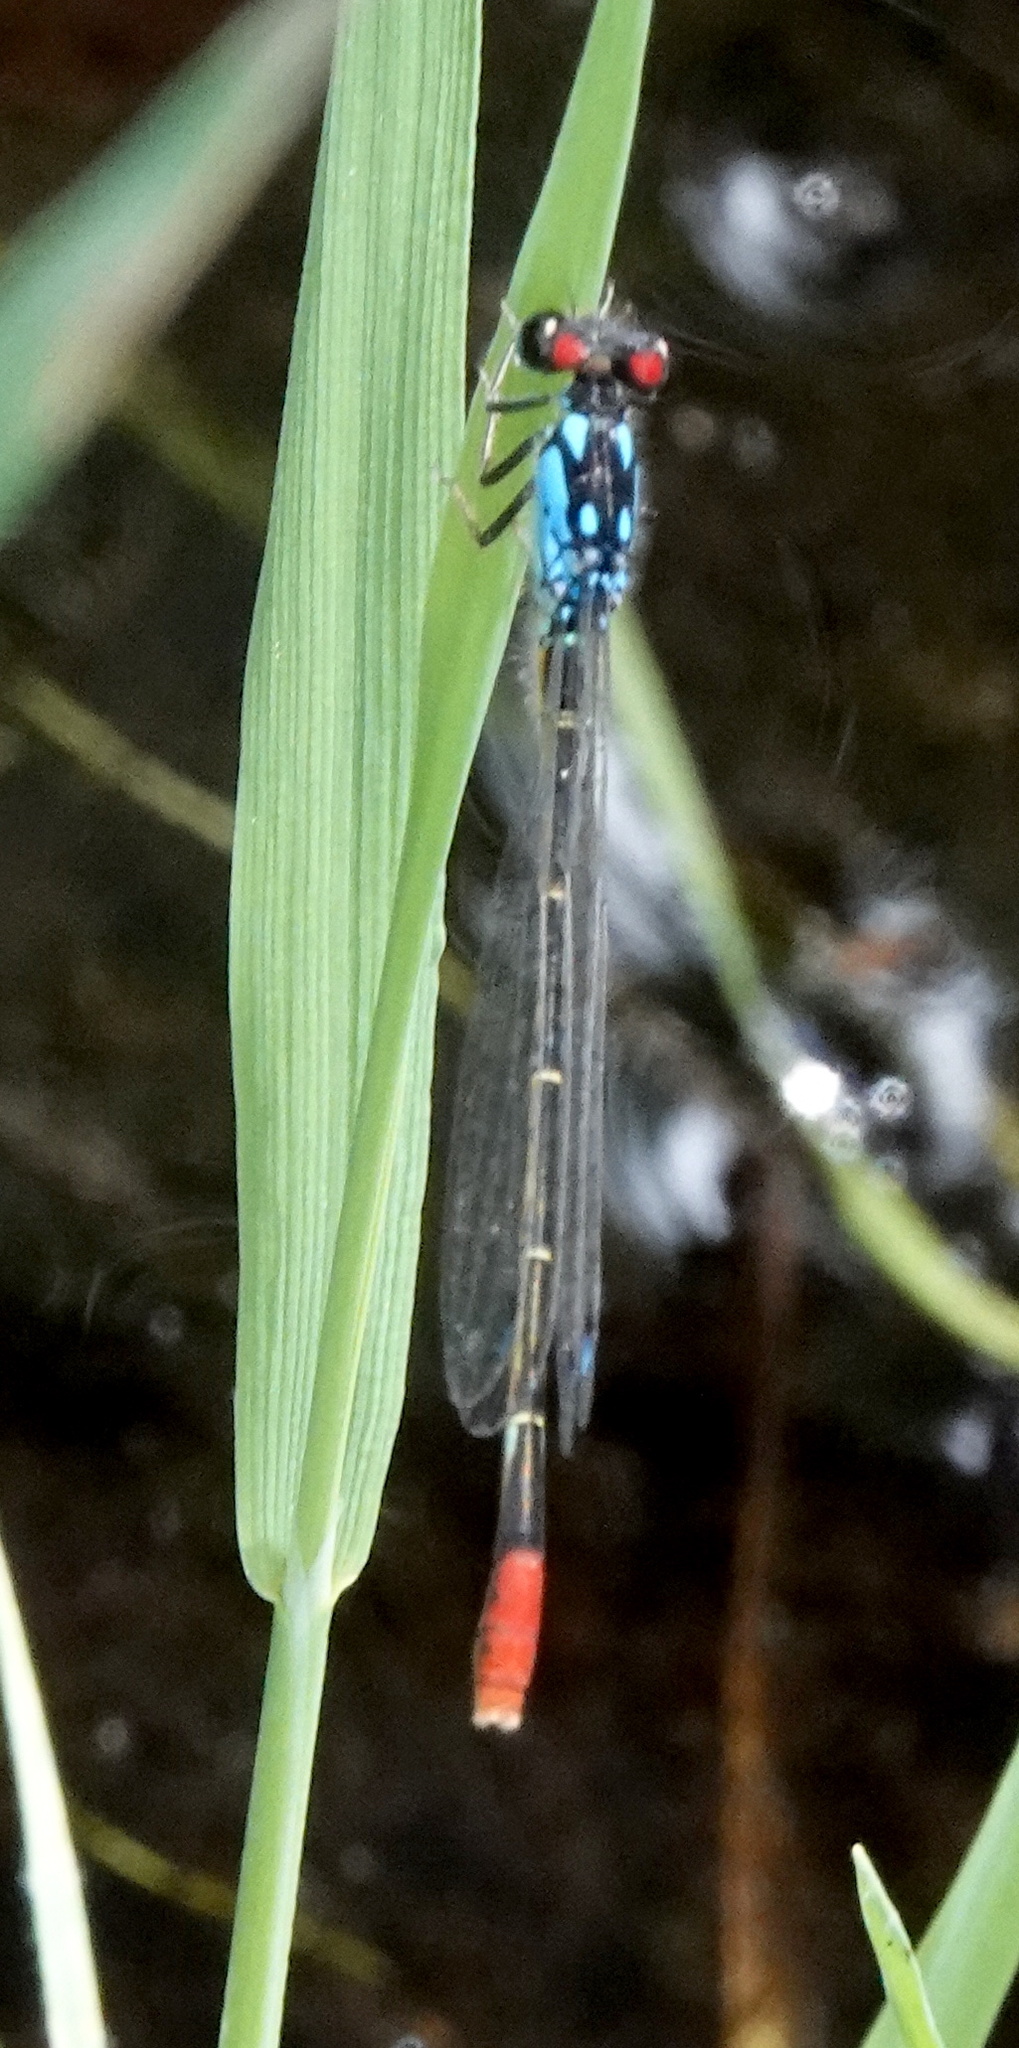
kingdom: Animalia
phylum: Arthropoda
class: Insecta
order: Odonata
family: Coenagrionidae
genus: Hesperagrion
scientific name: Hesperagrion heterodoxum
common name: Painted damsel
